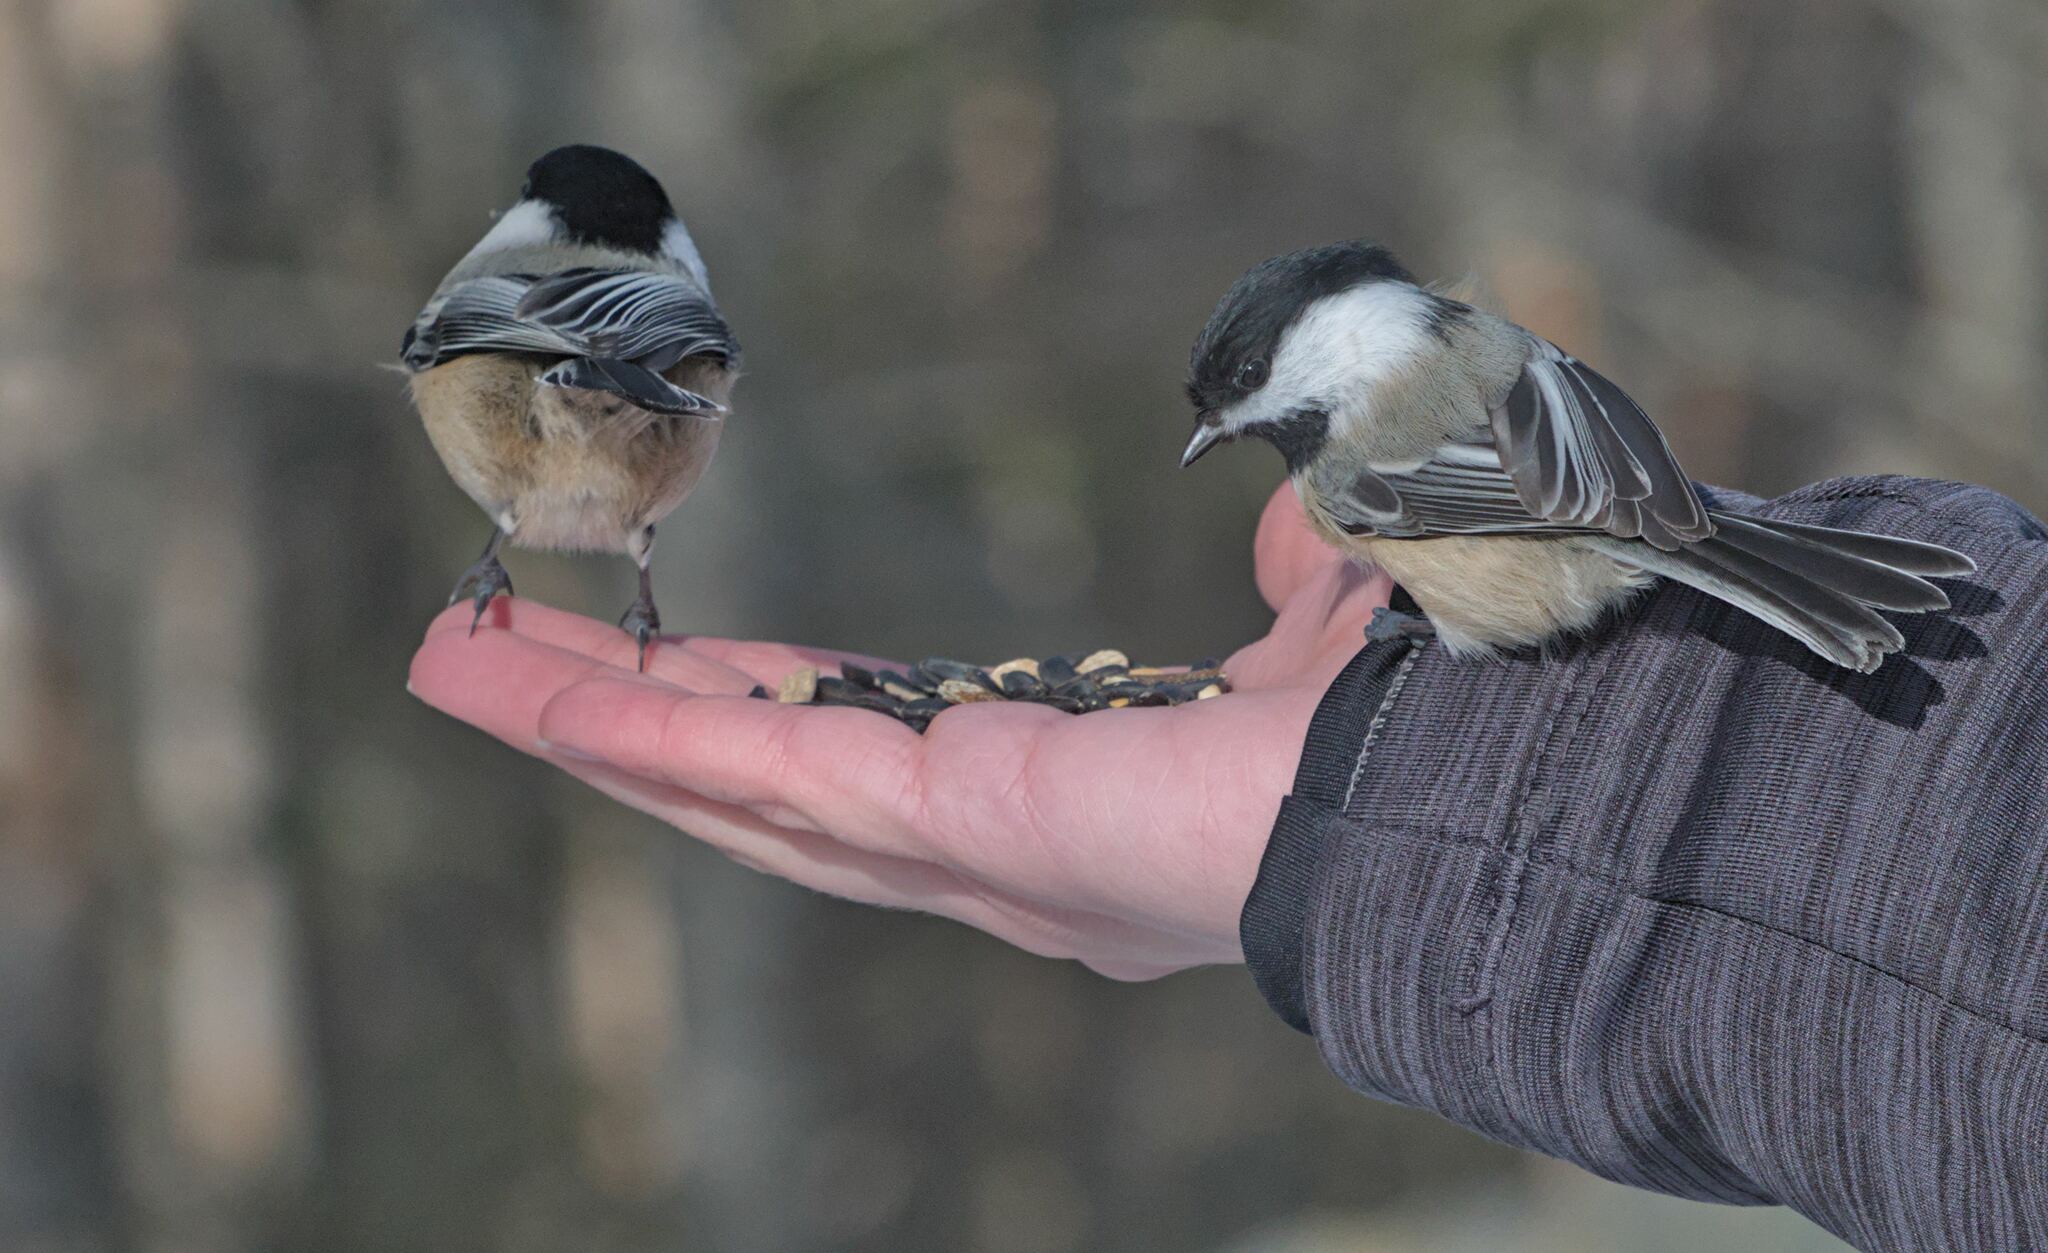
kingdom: Animalia
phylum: Chordata
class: Aves
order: Passeriformes
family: Paridae
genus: Poecile
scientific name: Poecile atricapillus
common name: Black-capped chickadee
